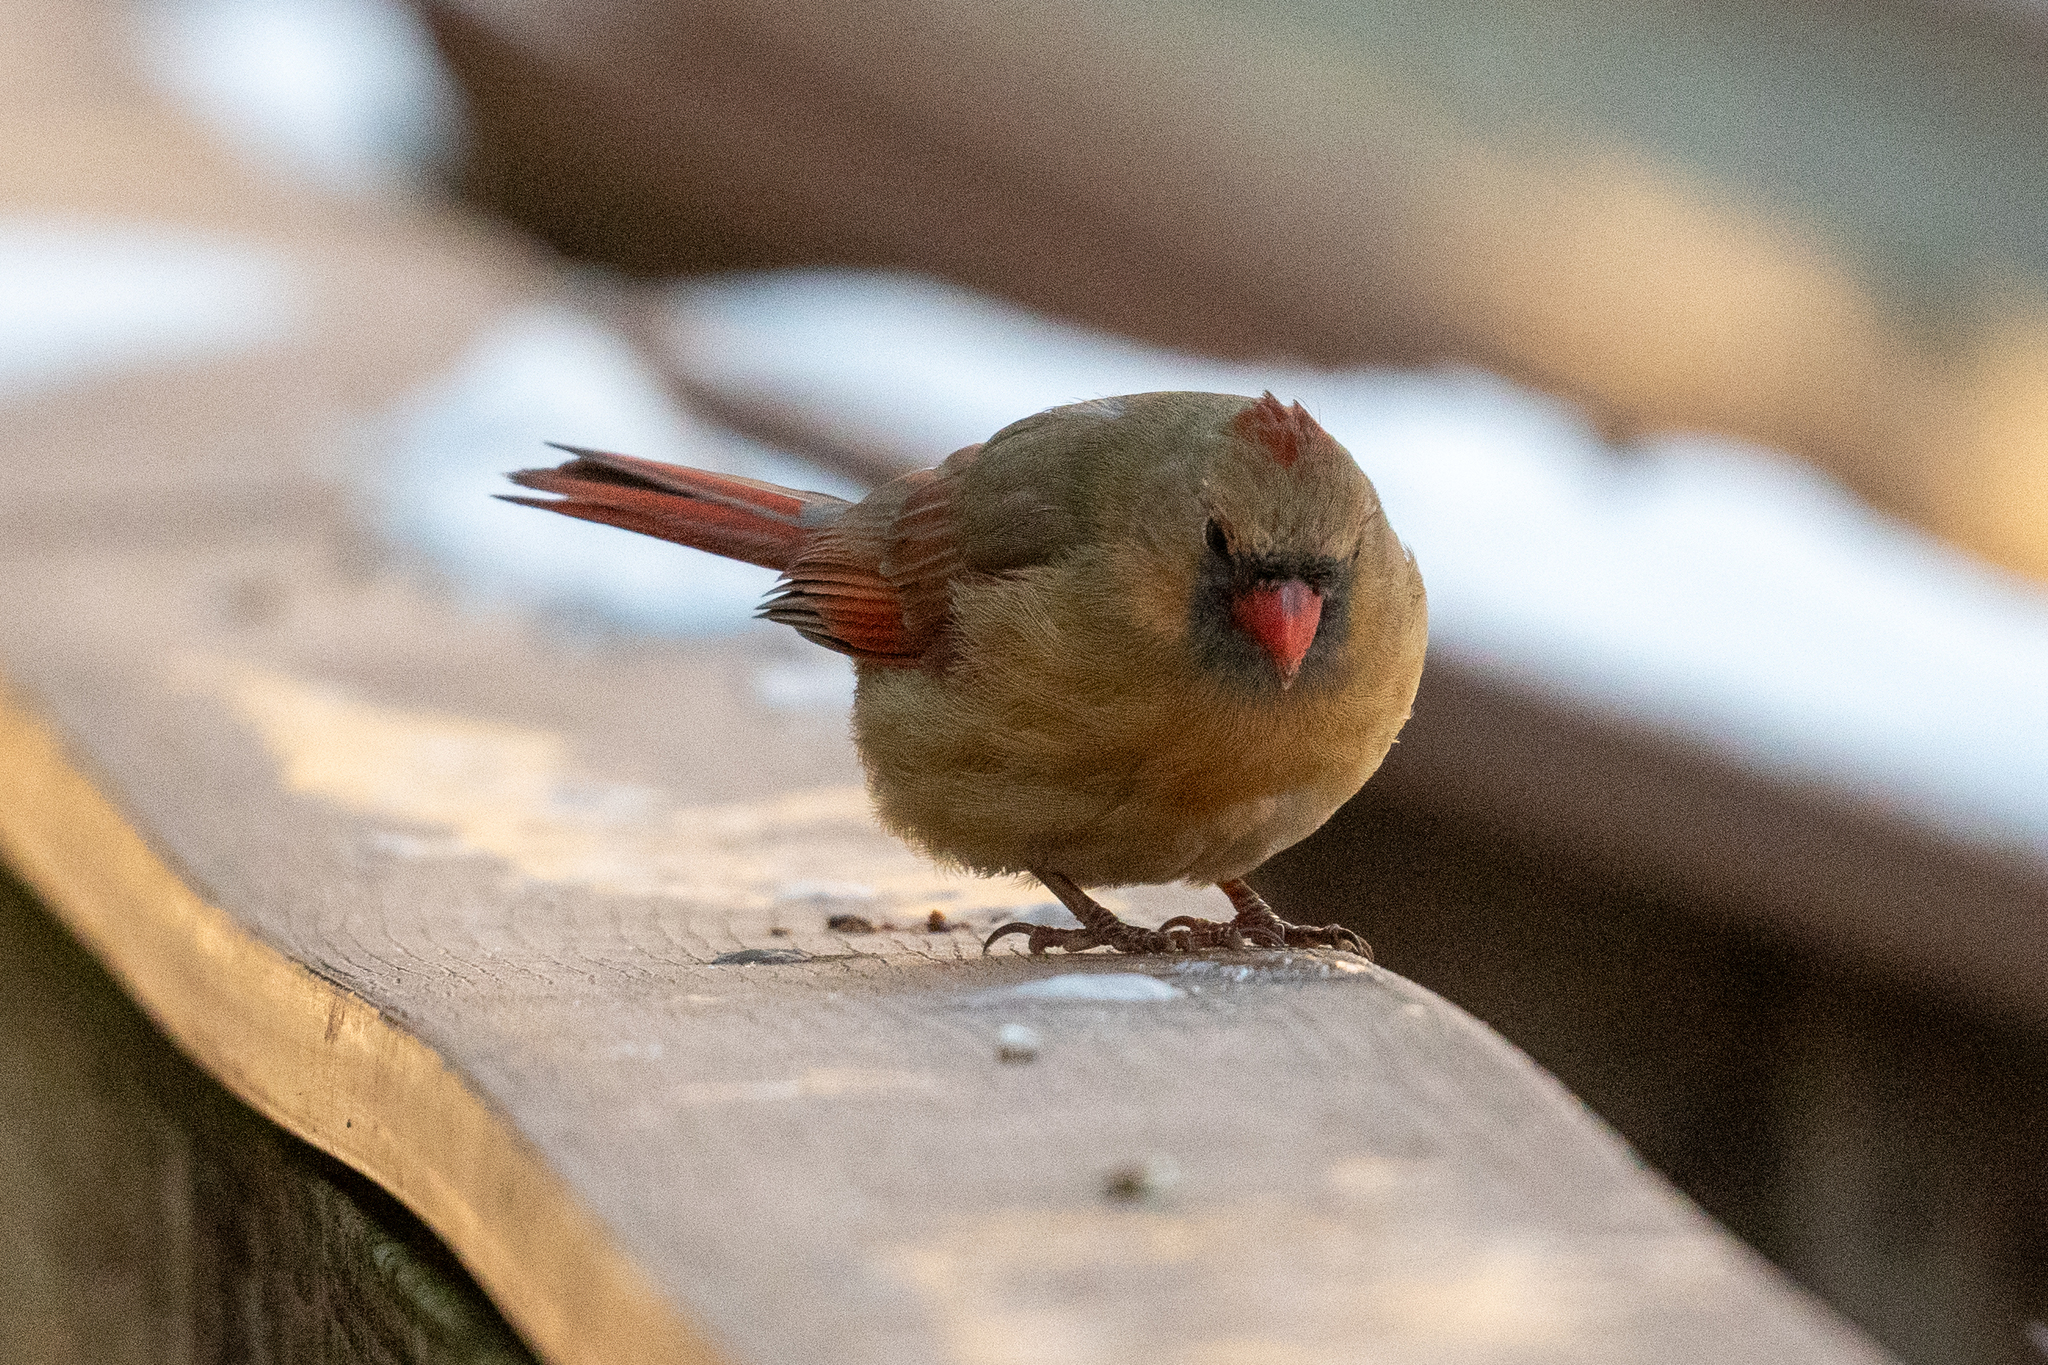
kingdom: Animalia
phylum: Chordata
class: Aves
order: Passeriformes
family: Cardinalidae
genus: Cardinalis
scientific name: Cardinalis cardinalis
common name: Northern cardinal
